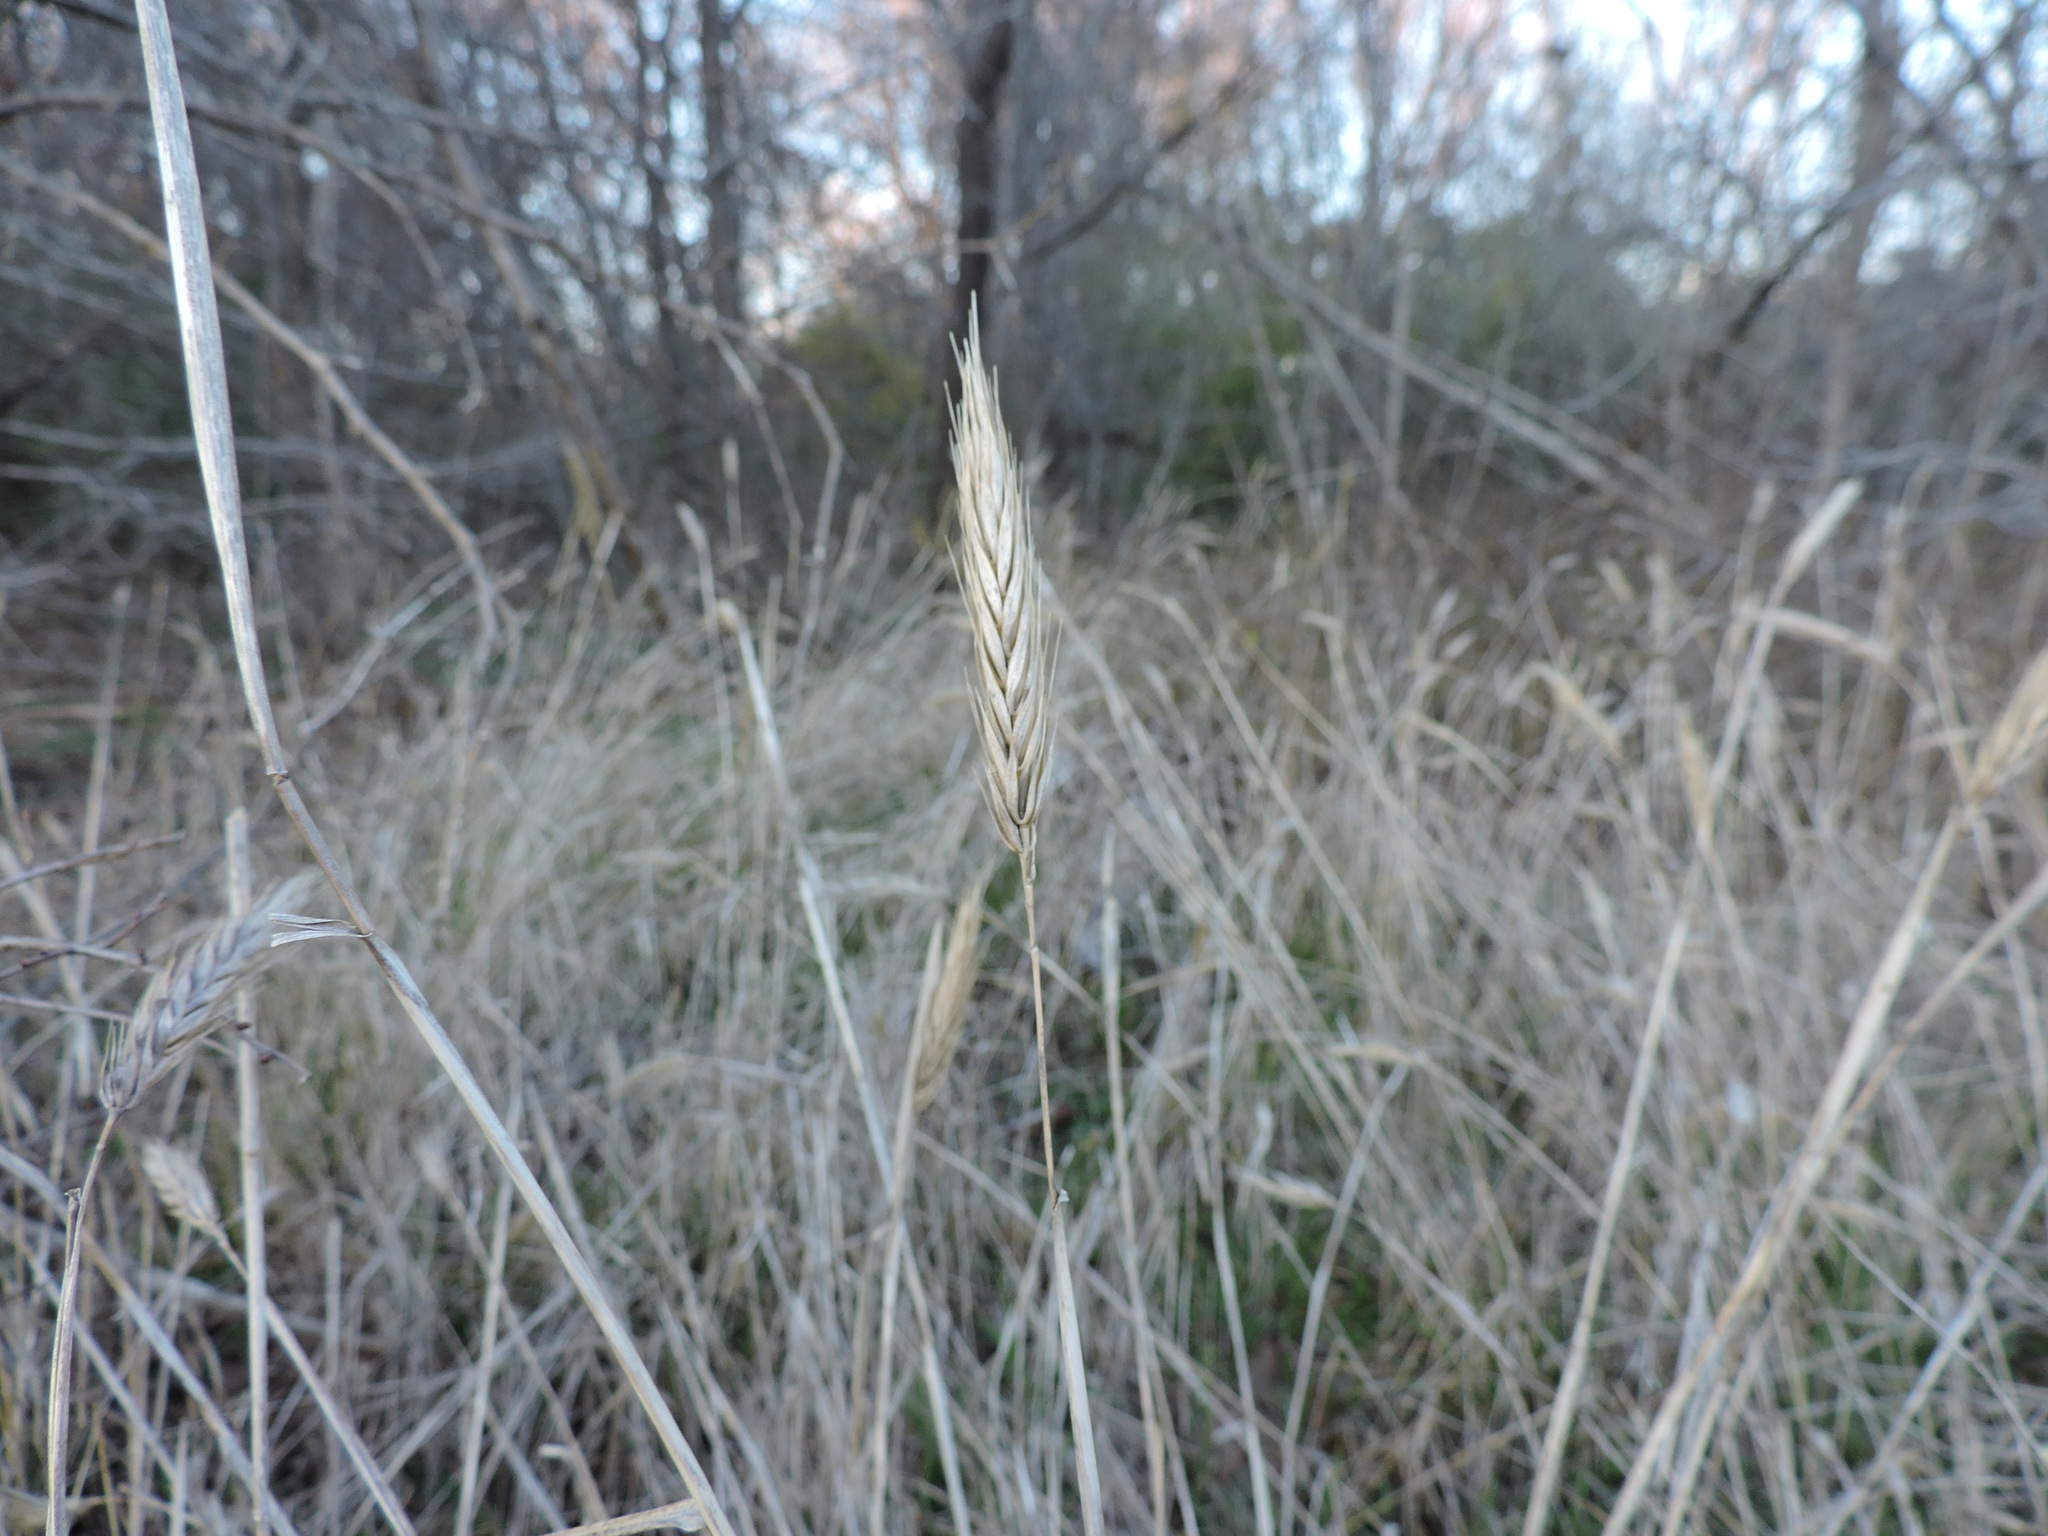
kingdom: Plantae
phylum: Tracheophyta
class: Liliopsida
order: Poales
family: Poaceae
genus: Elymus
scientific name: Elymus virginicus
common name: Common eastern wildrye
